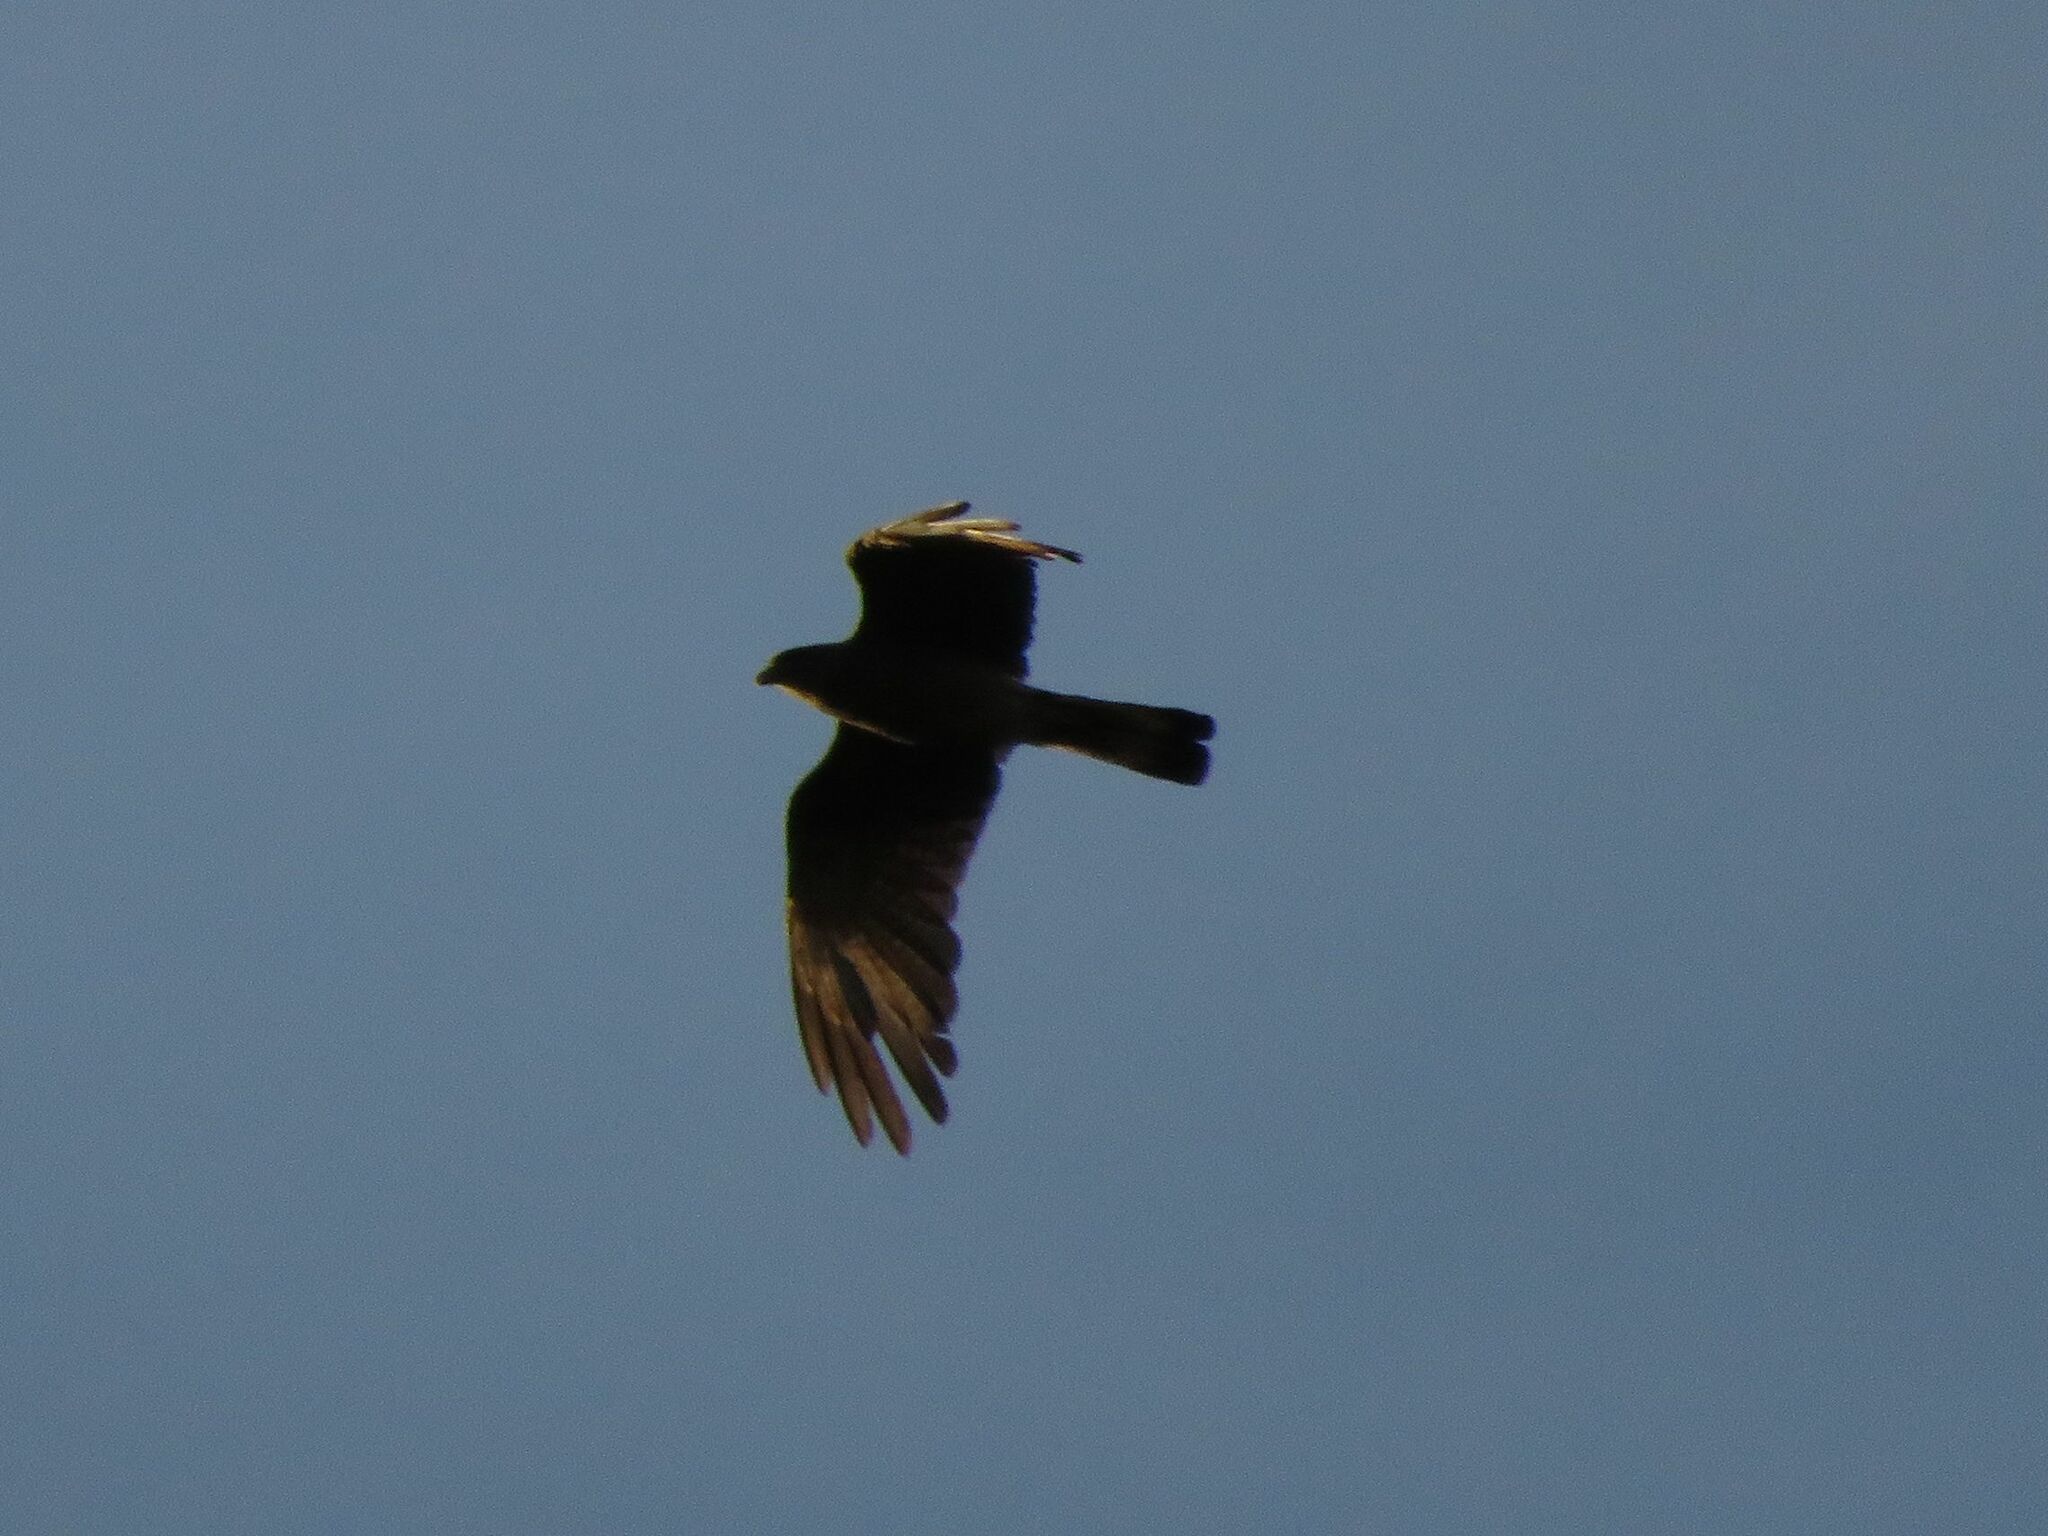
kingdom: Animalia
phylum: Chordata
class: Aves
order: Falconiformes
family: Falconidae
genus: Daptrius
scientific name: Daptrius
